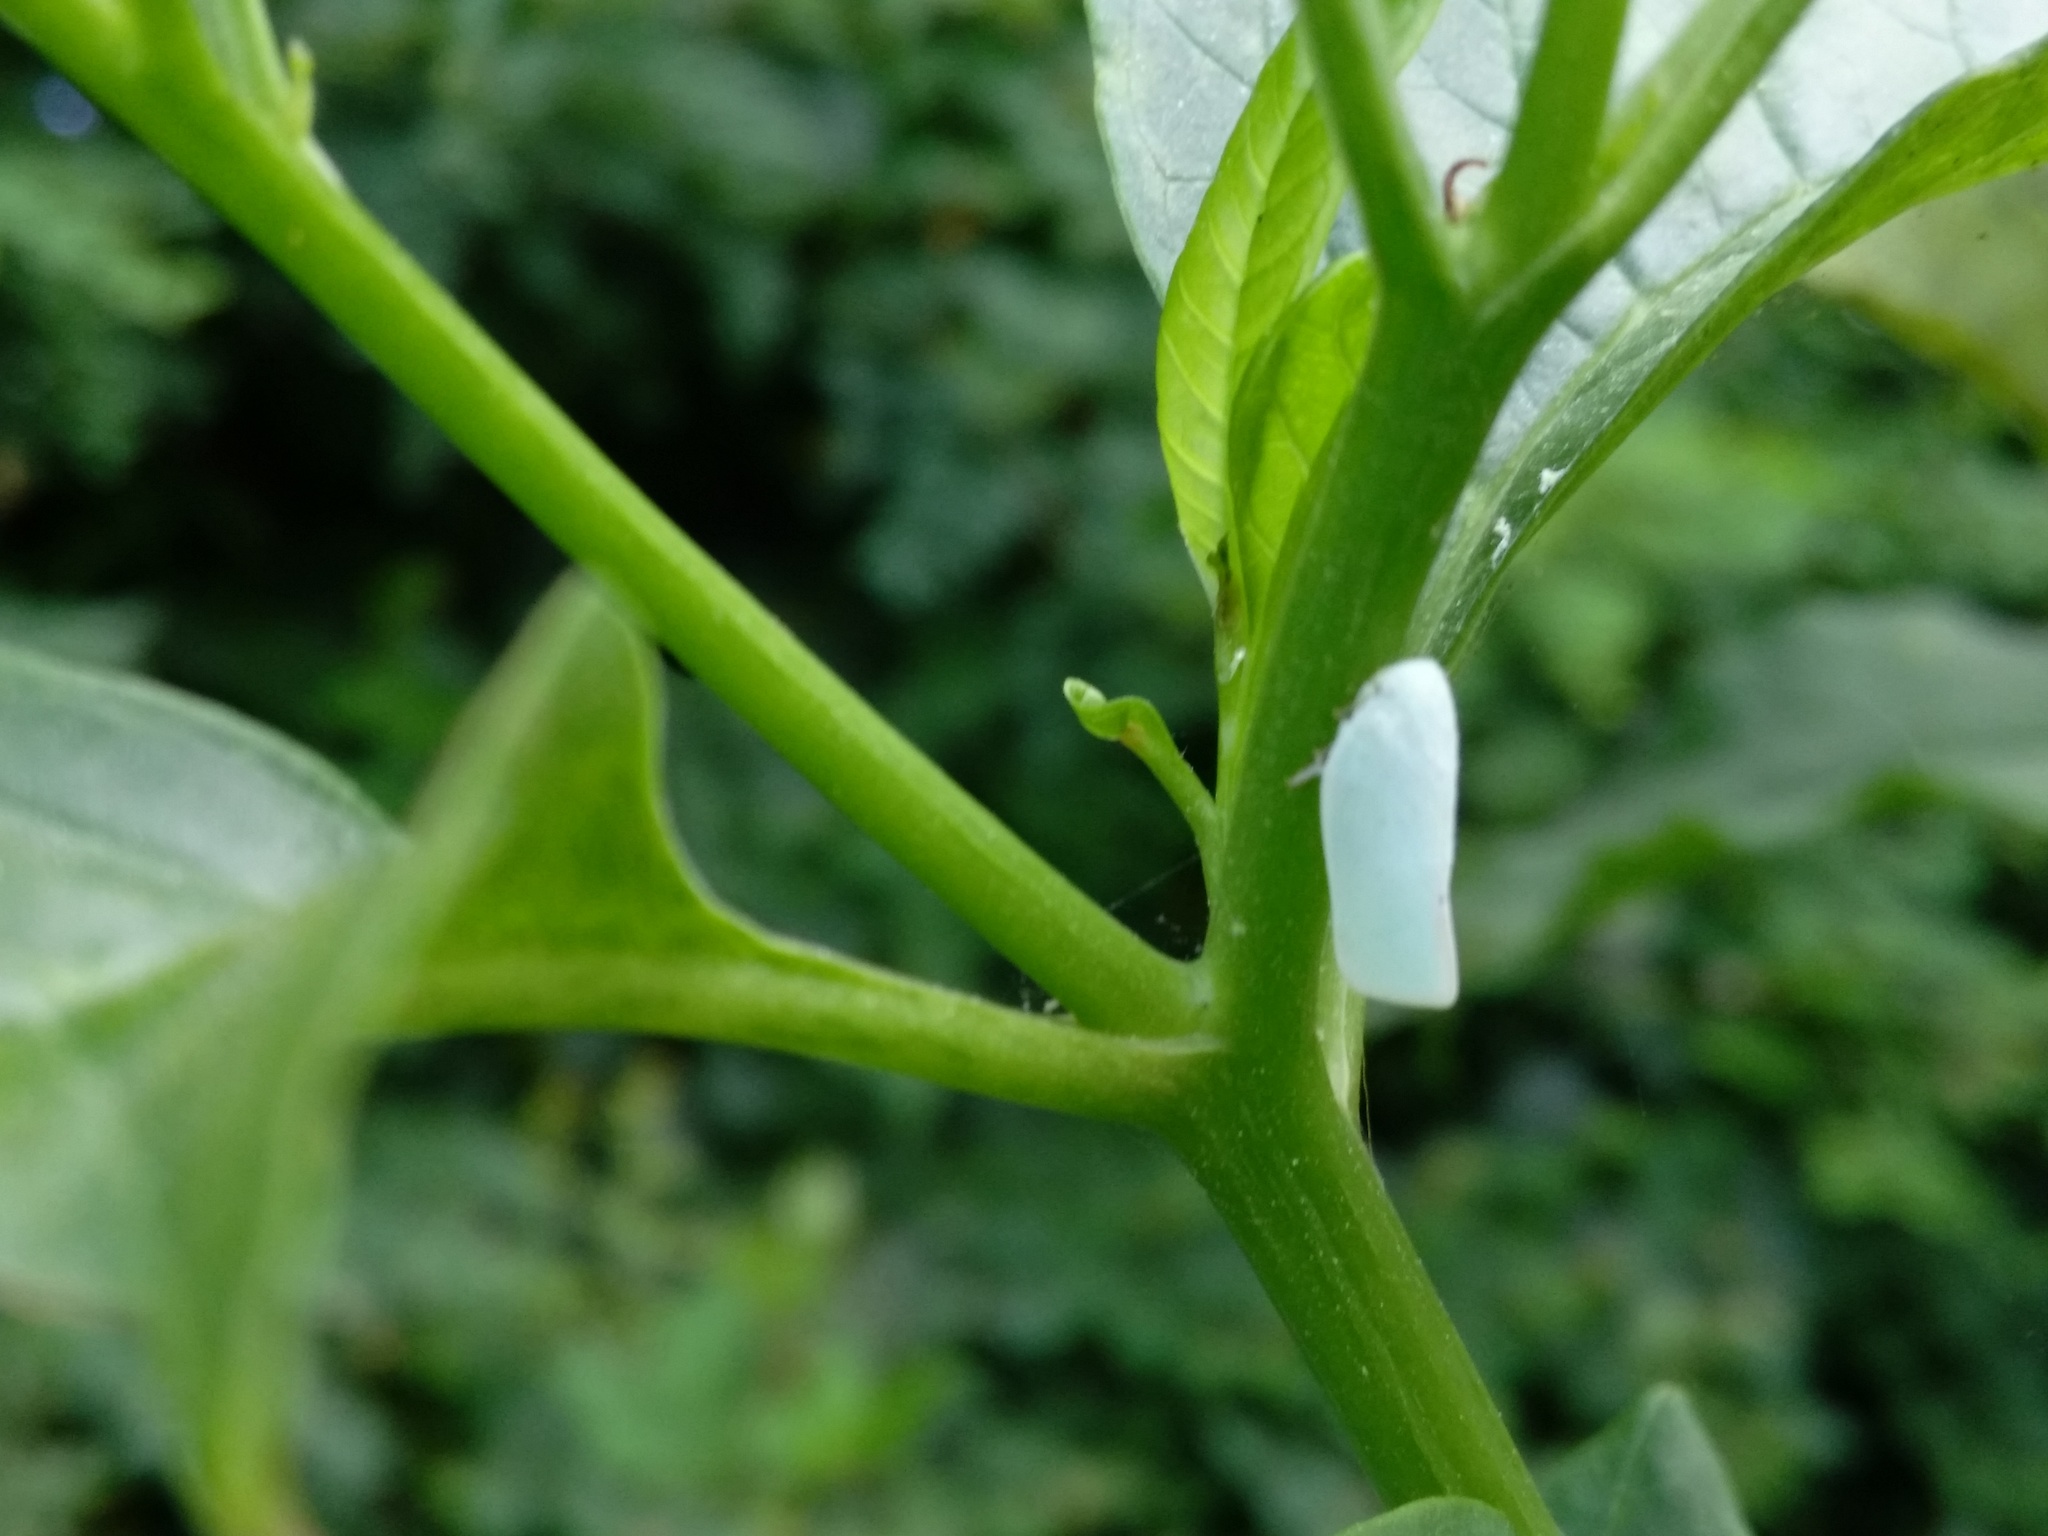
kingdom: Animalia
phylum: Arthropoda
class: Insecta
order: Hemiptera
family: Flatidae
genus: Flatormenis
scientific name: Flatormenis proxima
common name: Northern flatid planthopper
